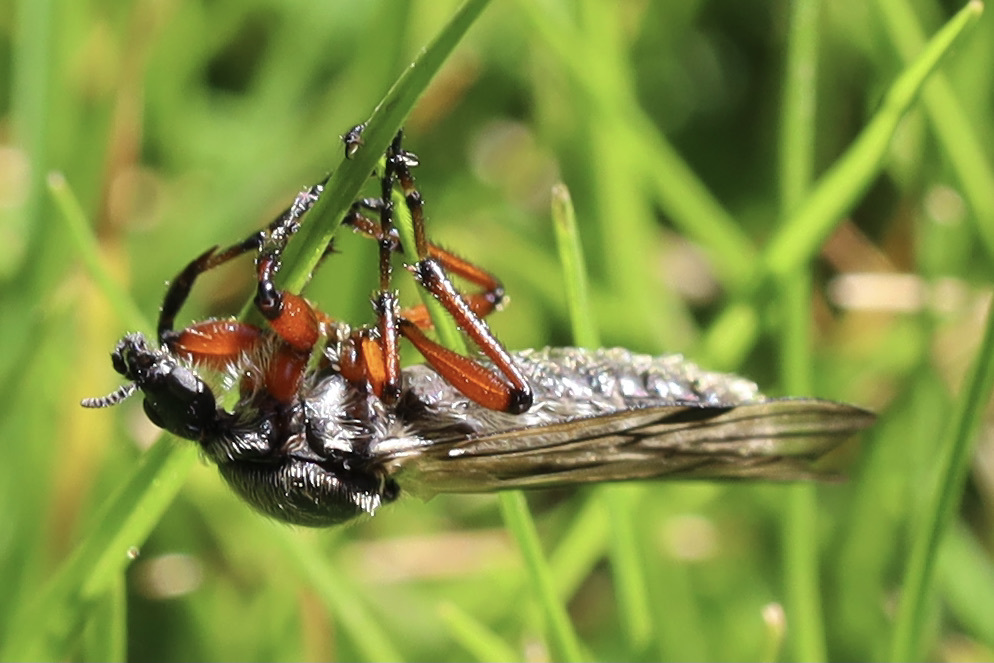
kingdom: Animalia
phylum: Arthropoda
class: Insecta
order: Diptera
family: Bibionidae
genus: Bibio
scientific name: Bibio
